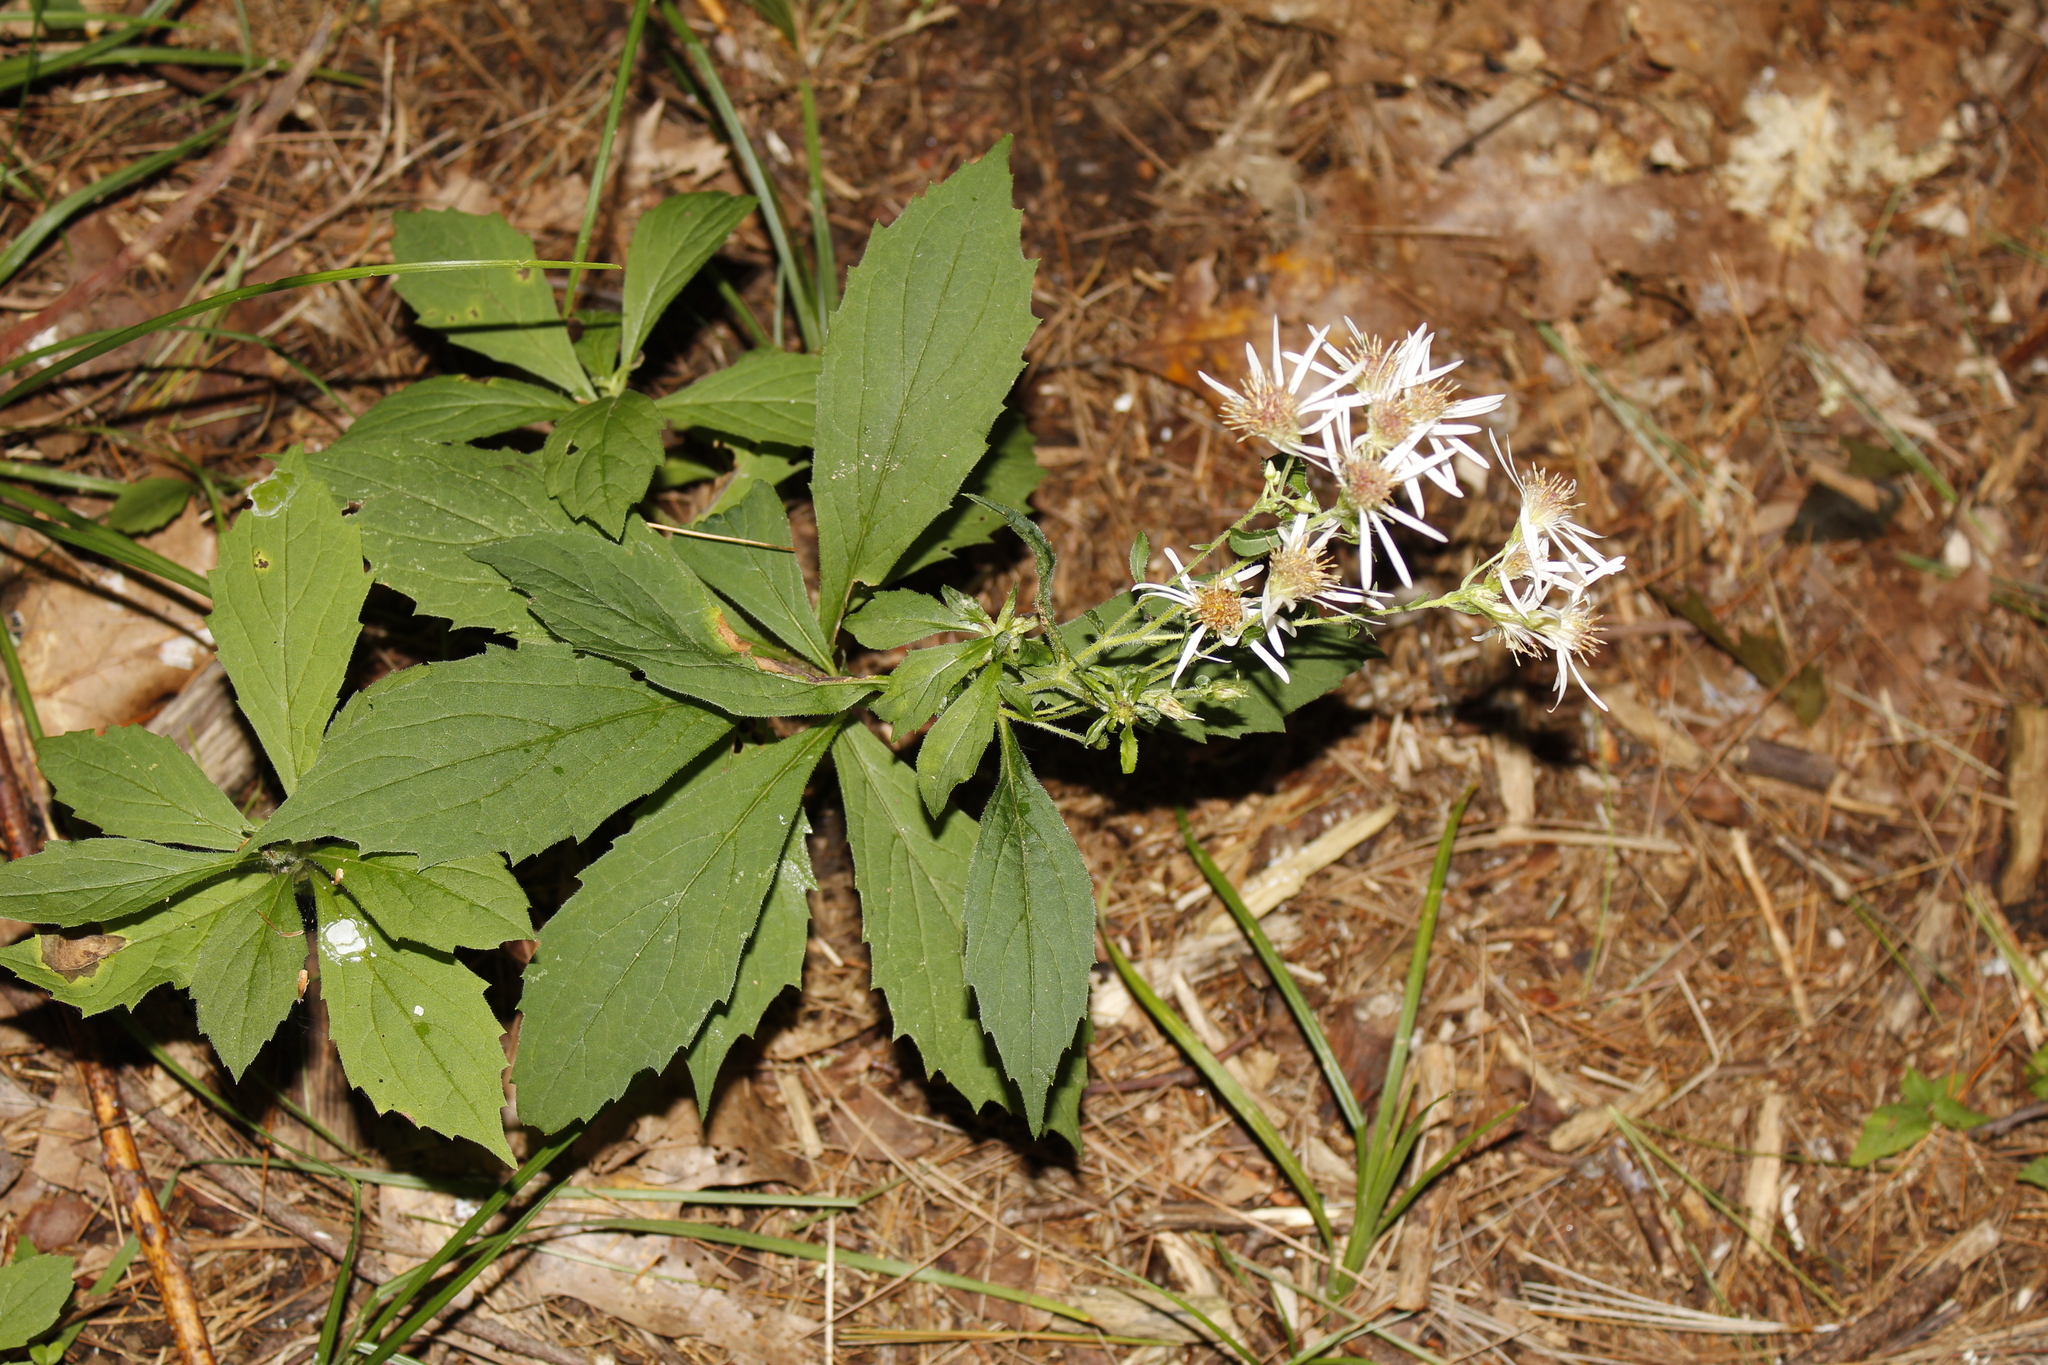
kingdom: Plantae
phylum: Tracheophyta
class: Magnoliopsida
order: Asterales
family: Asteraceae
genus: Oclemena
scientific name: Oclemena acuminata
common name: Mountain aster
